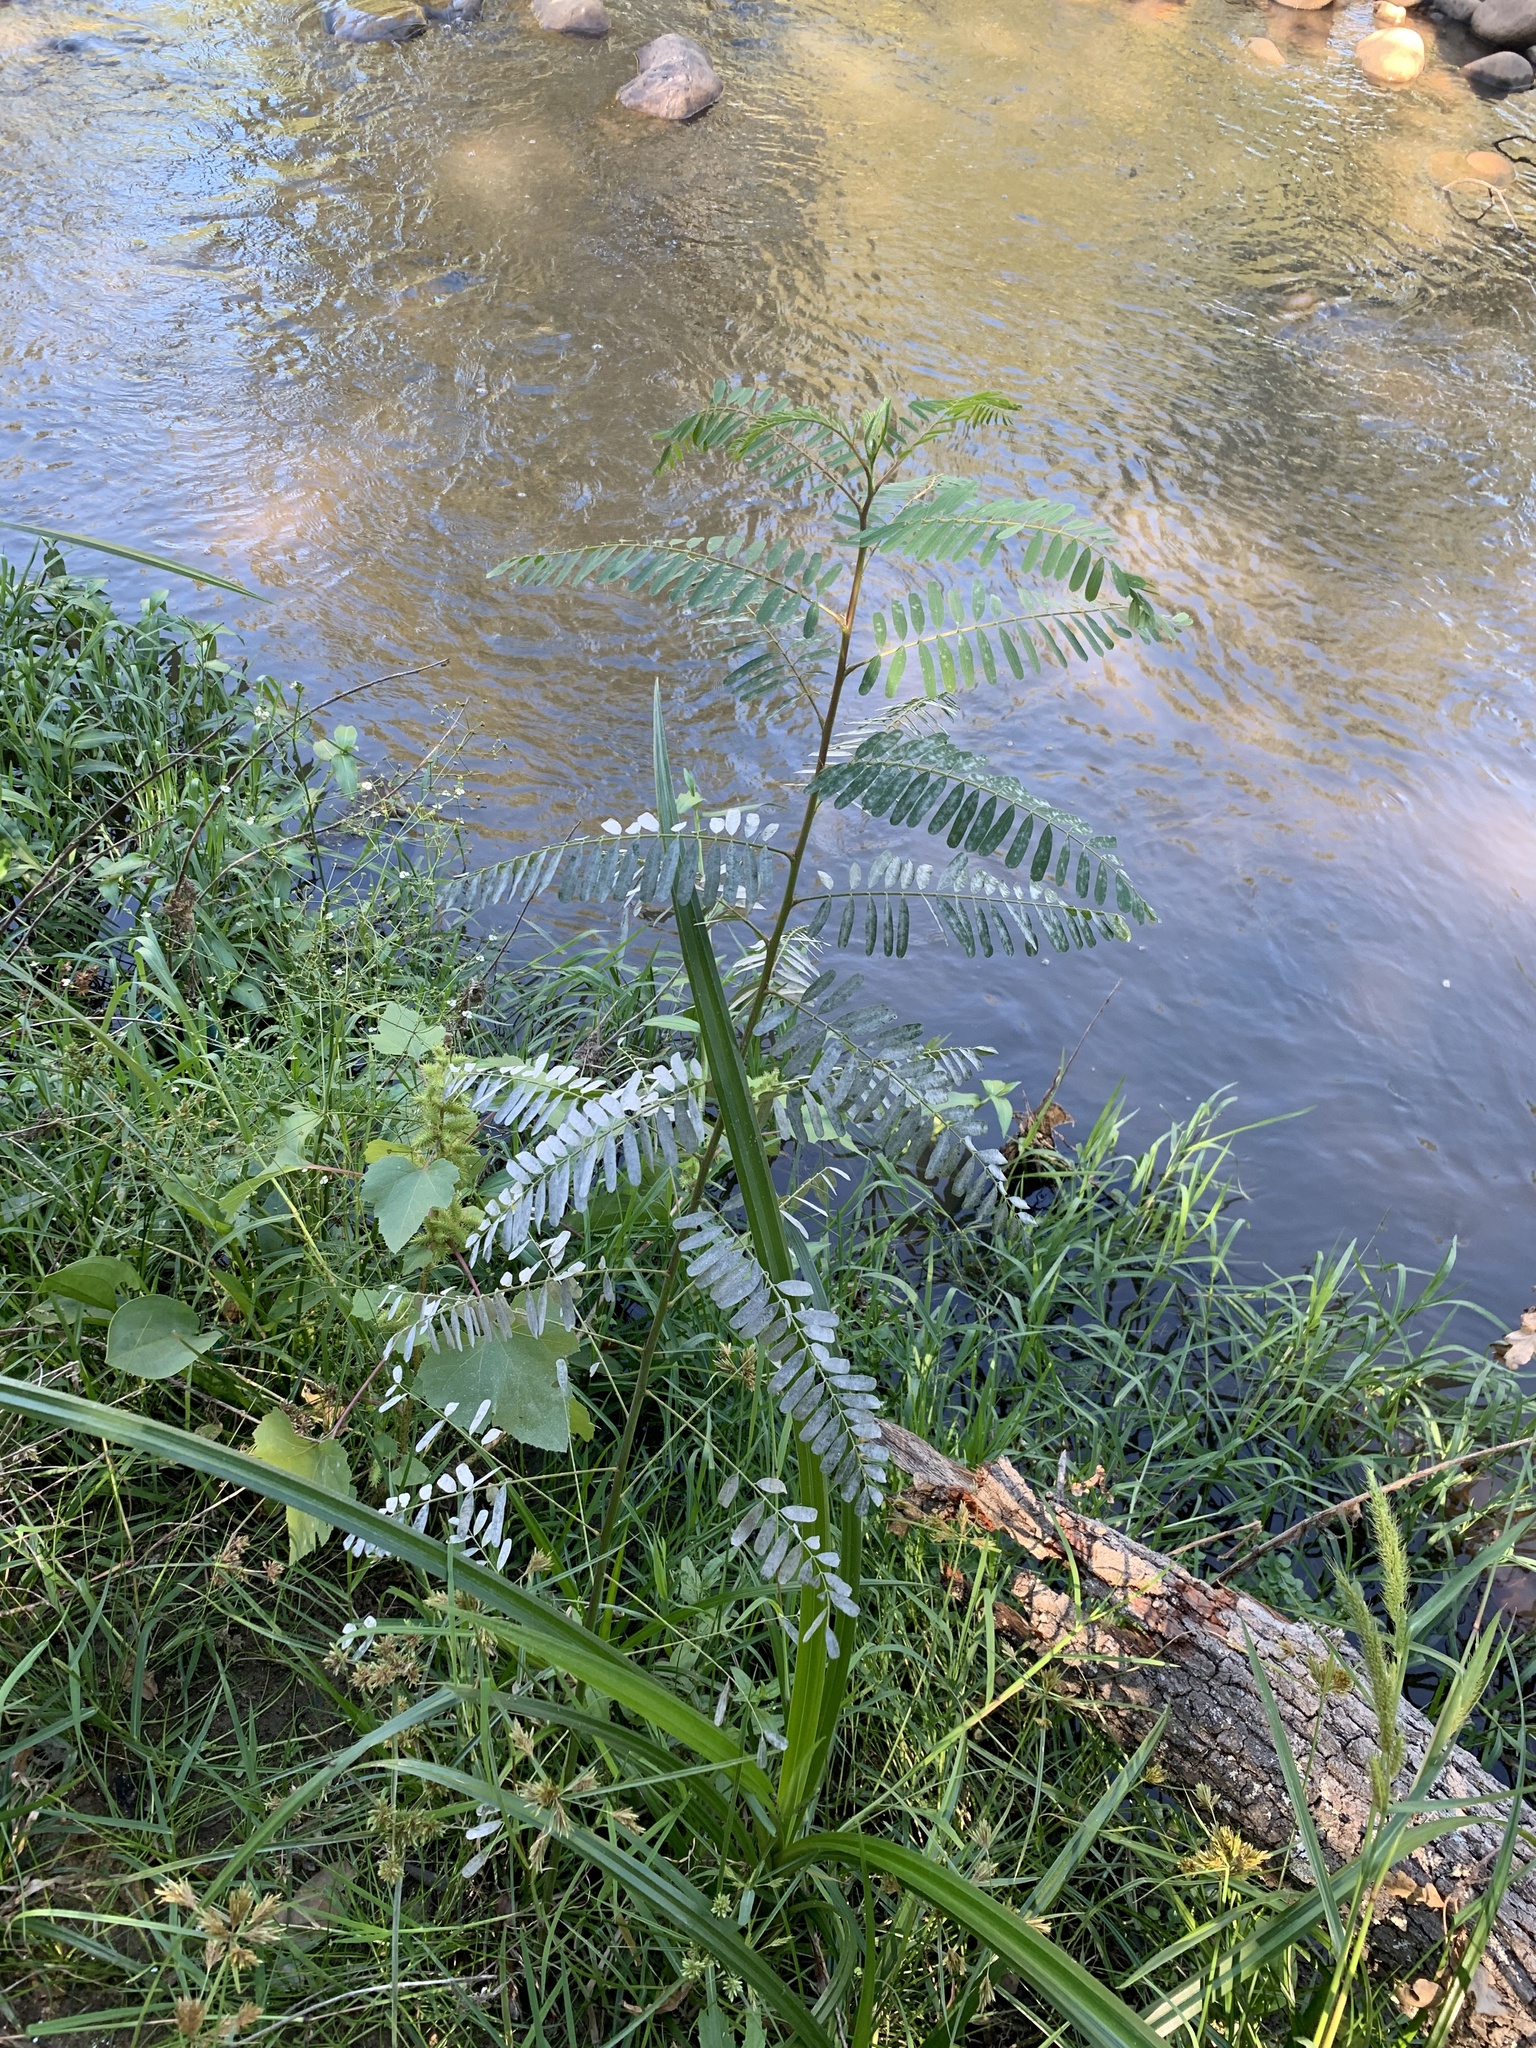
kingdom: Plantae
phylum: Tracheophyta
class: Magnoliopsida
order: Fabales
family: Fabaceae
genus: Sesbania
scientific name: Sesbania punicea
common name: Rattlebox
